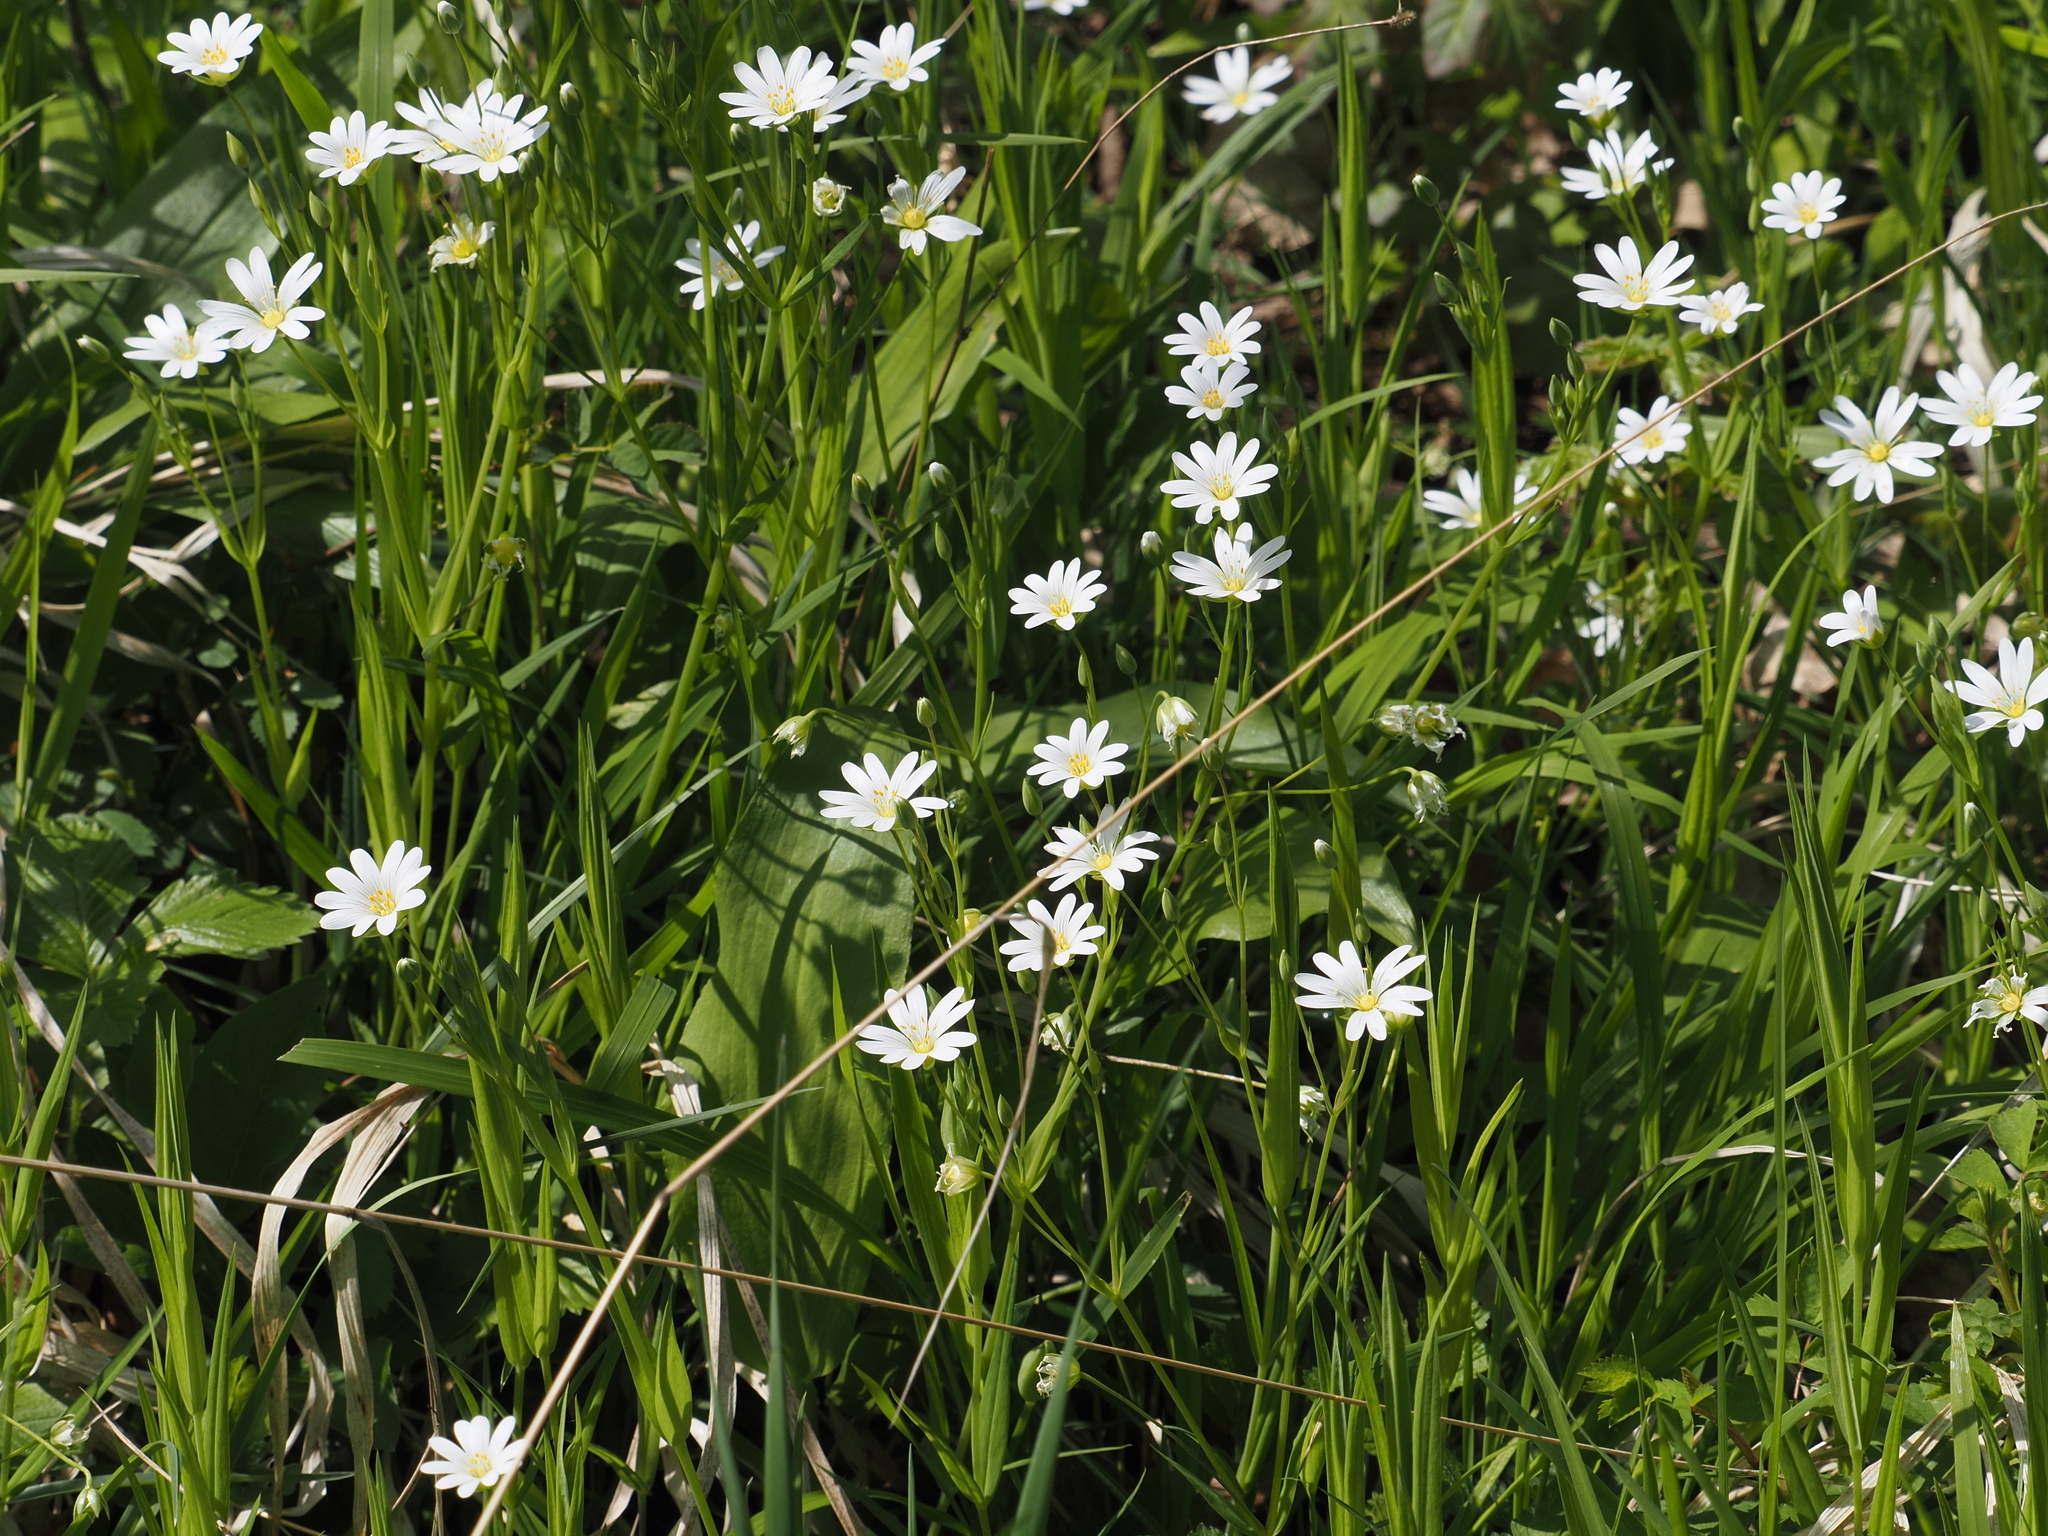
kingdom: Plantae
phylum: Tracheophyta
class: Magnoliopsida
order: Caryophyllales
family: Caryophyllaceae
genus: Rabelera
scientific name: Rabelera holostea
